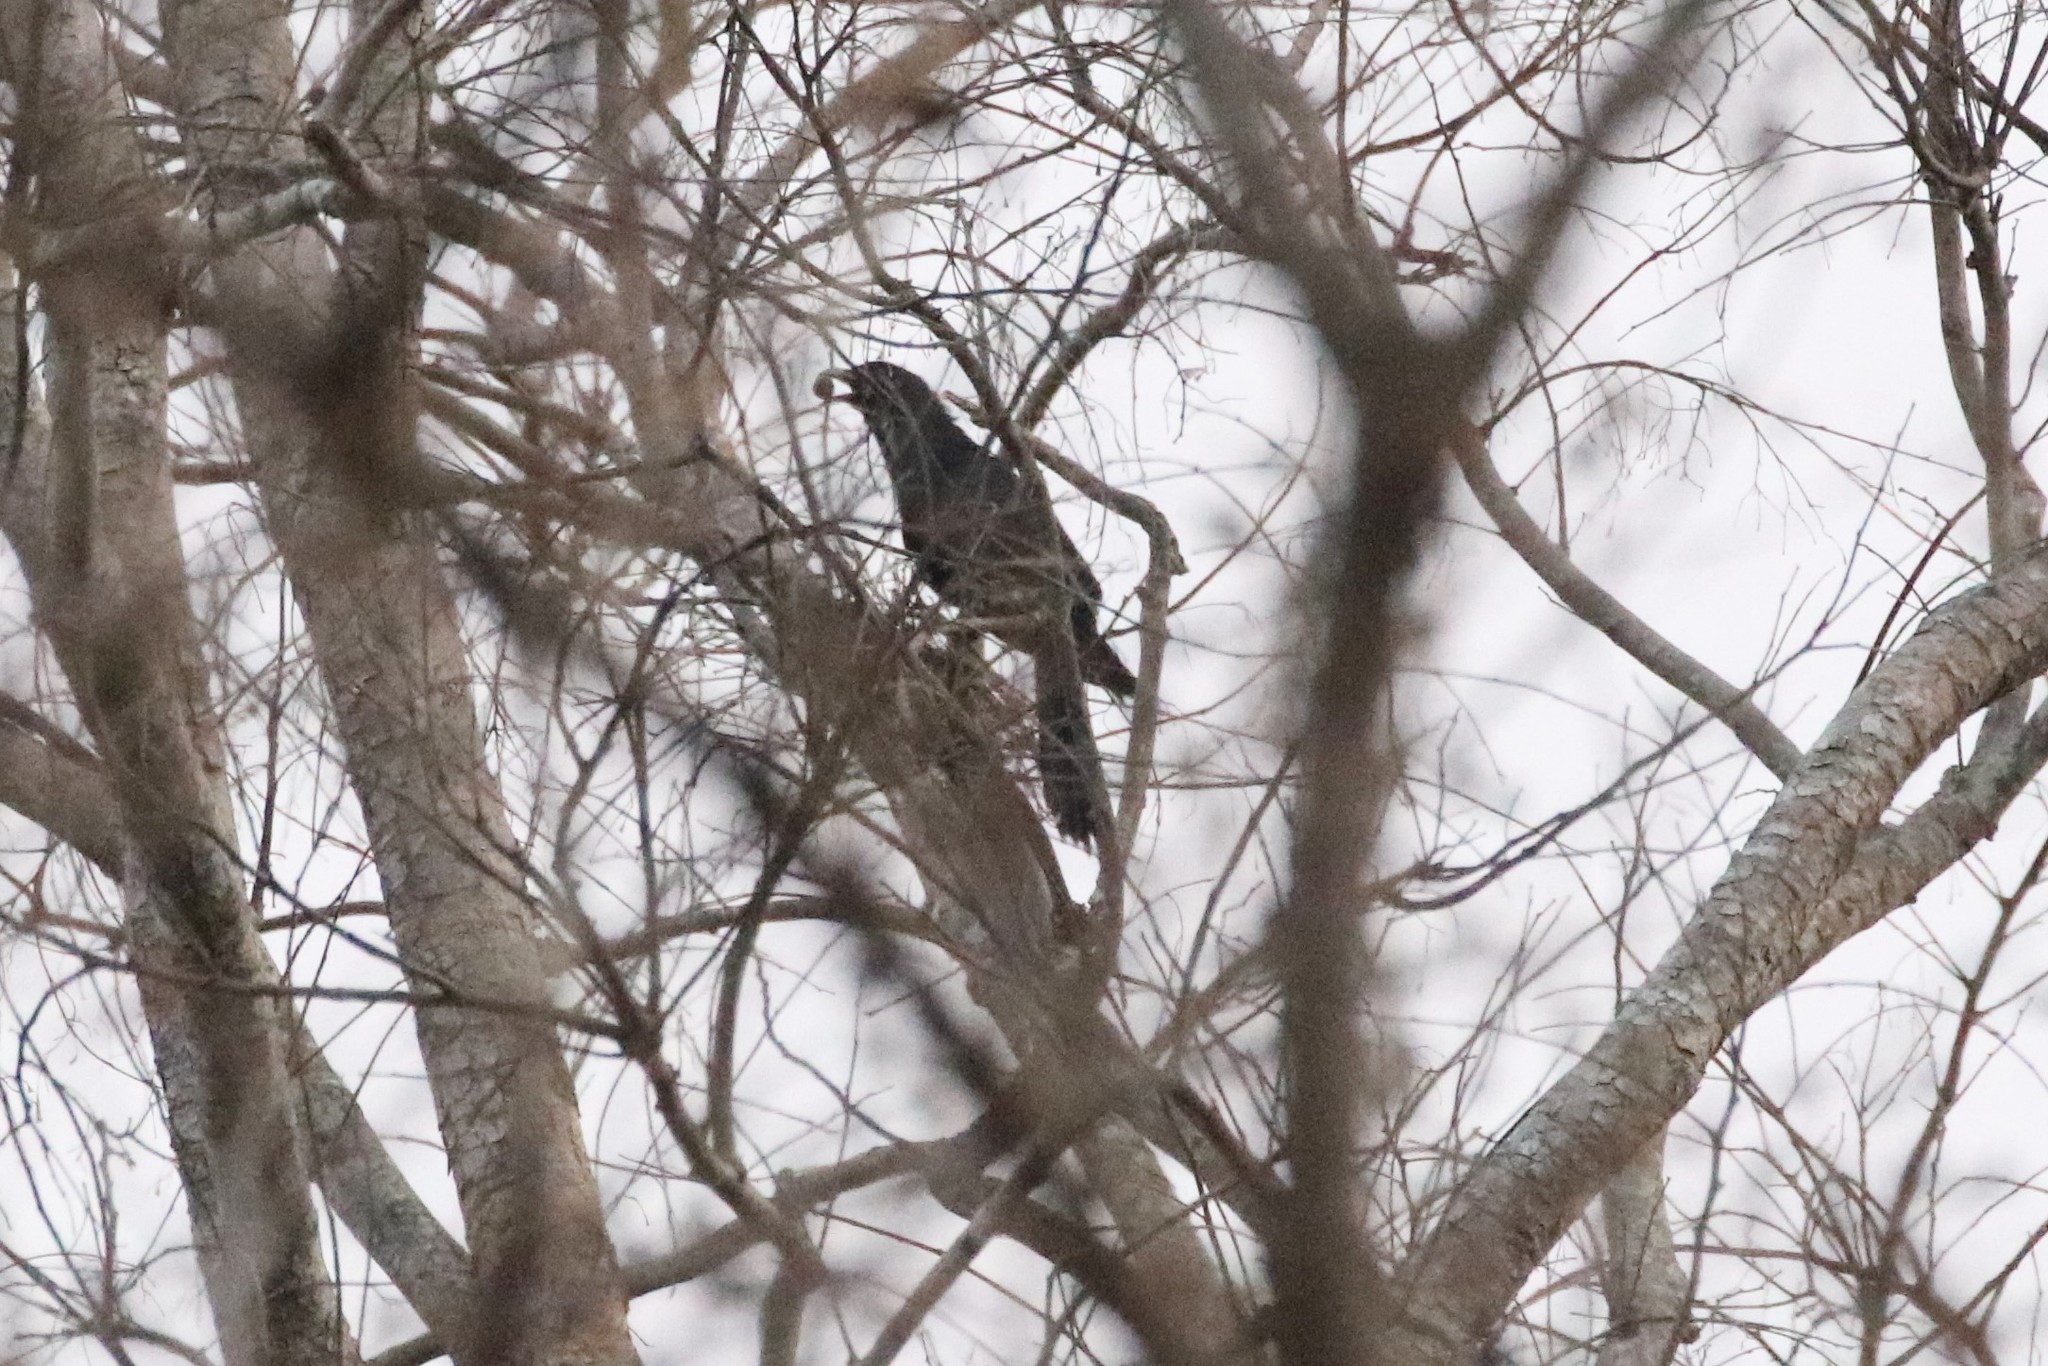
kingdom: Animalia
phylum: Chordata
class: Aves
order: Cuculiformes
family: Cuculidae
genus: Eudynamys
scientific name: Eudynamys scolopaceus
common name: Asian koel
